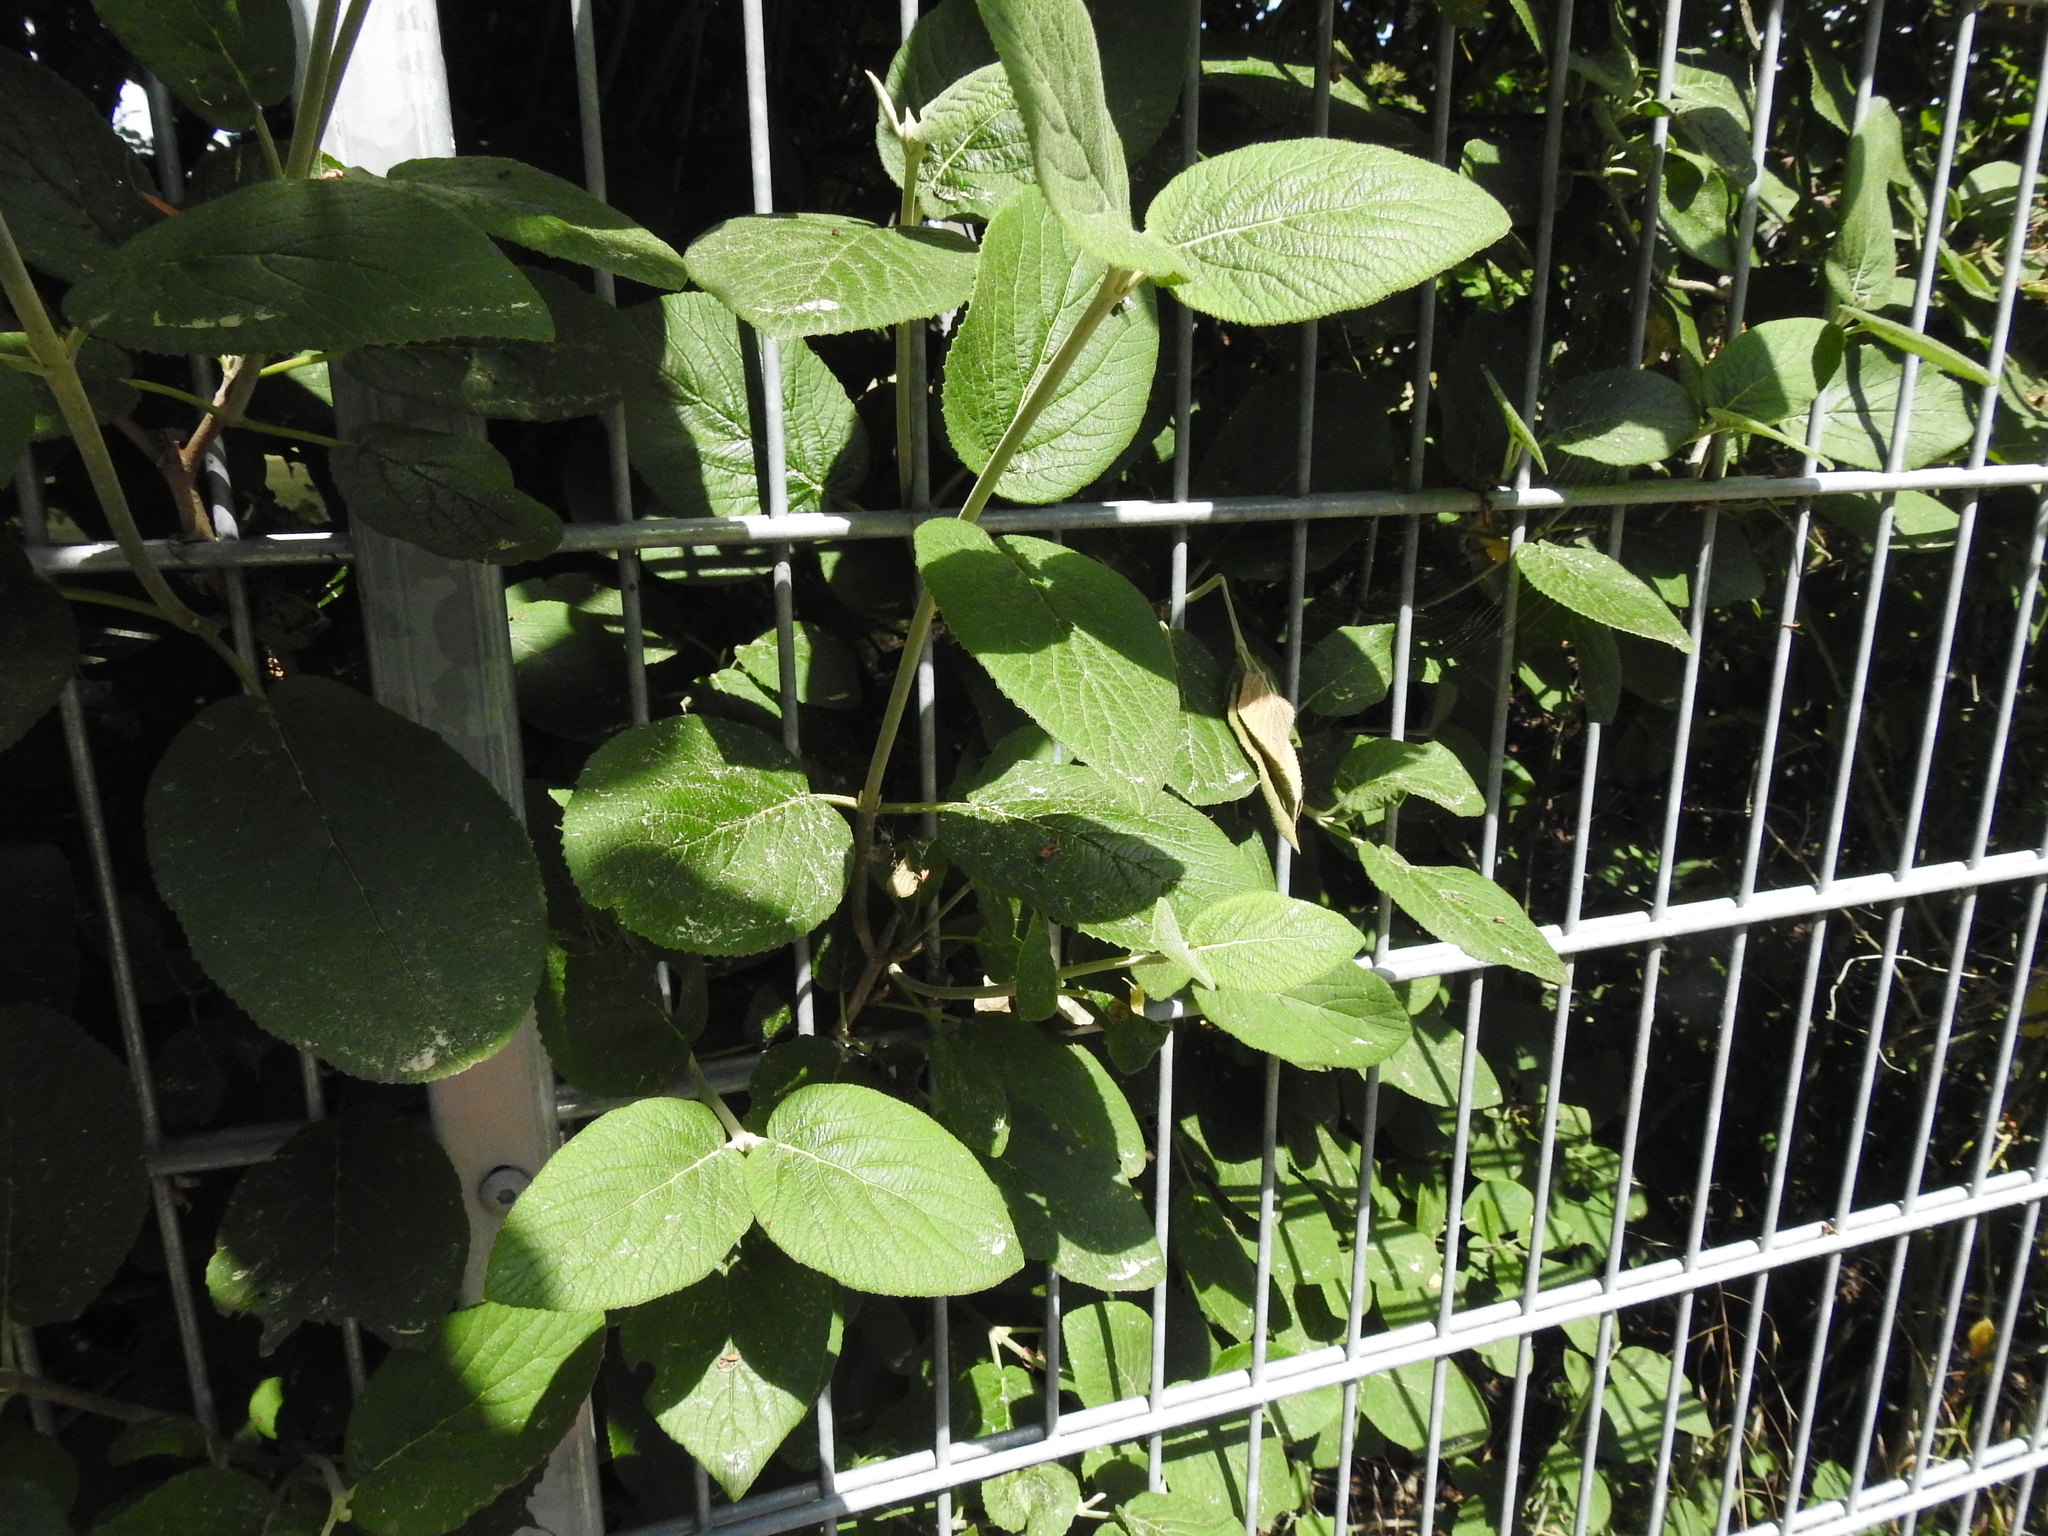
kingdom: Plantae
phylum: Tracheophyta
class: Magnoliopsida
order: Dipsacales
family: Viburnaceae
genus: Viburnum
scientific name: Viburnum lantana
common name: Wayfaring tree
